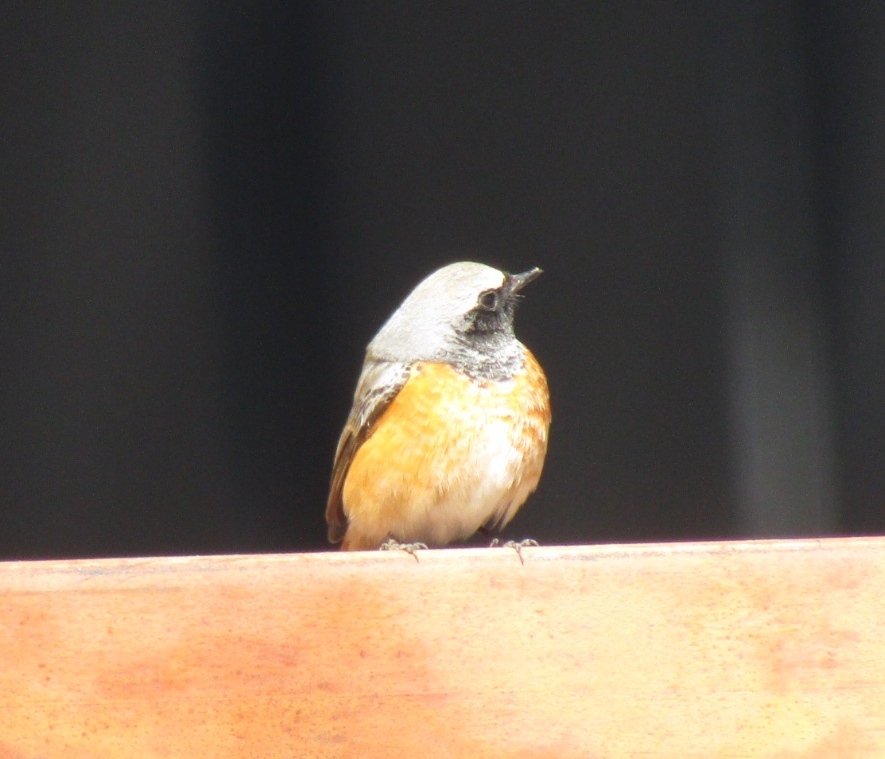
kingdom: Animalia
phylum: Chordata
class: Aves
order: Passeriformes
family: Muscicapidae
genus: Phoenicurus
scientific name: Phoenicurus phoenicurus
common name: Common redstart
